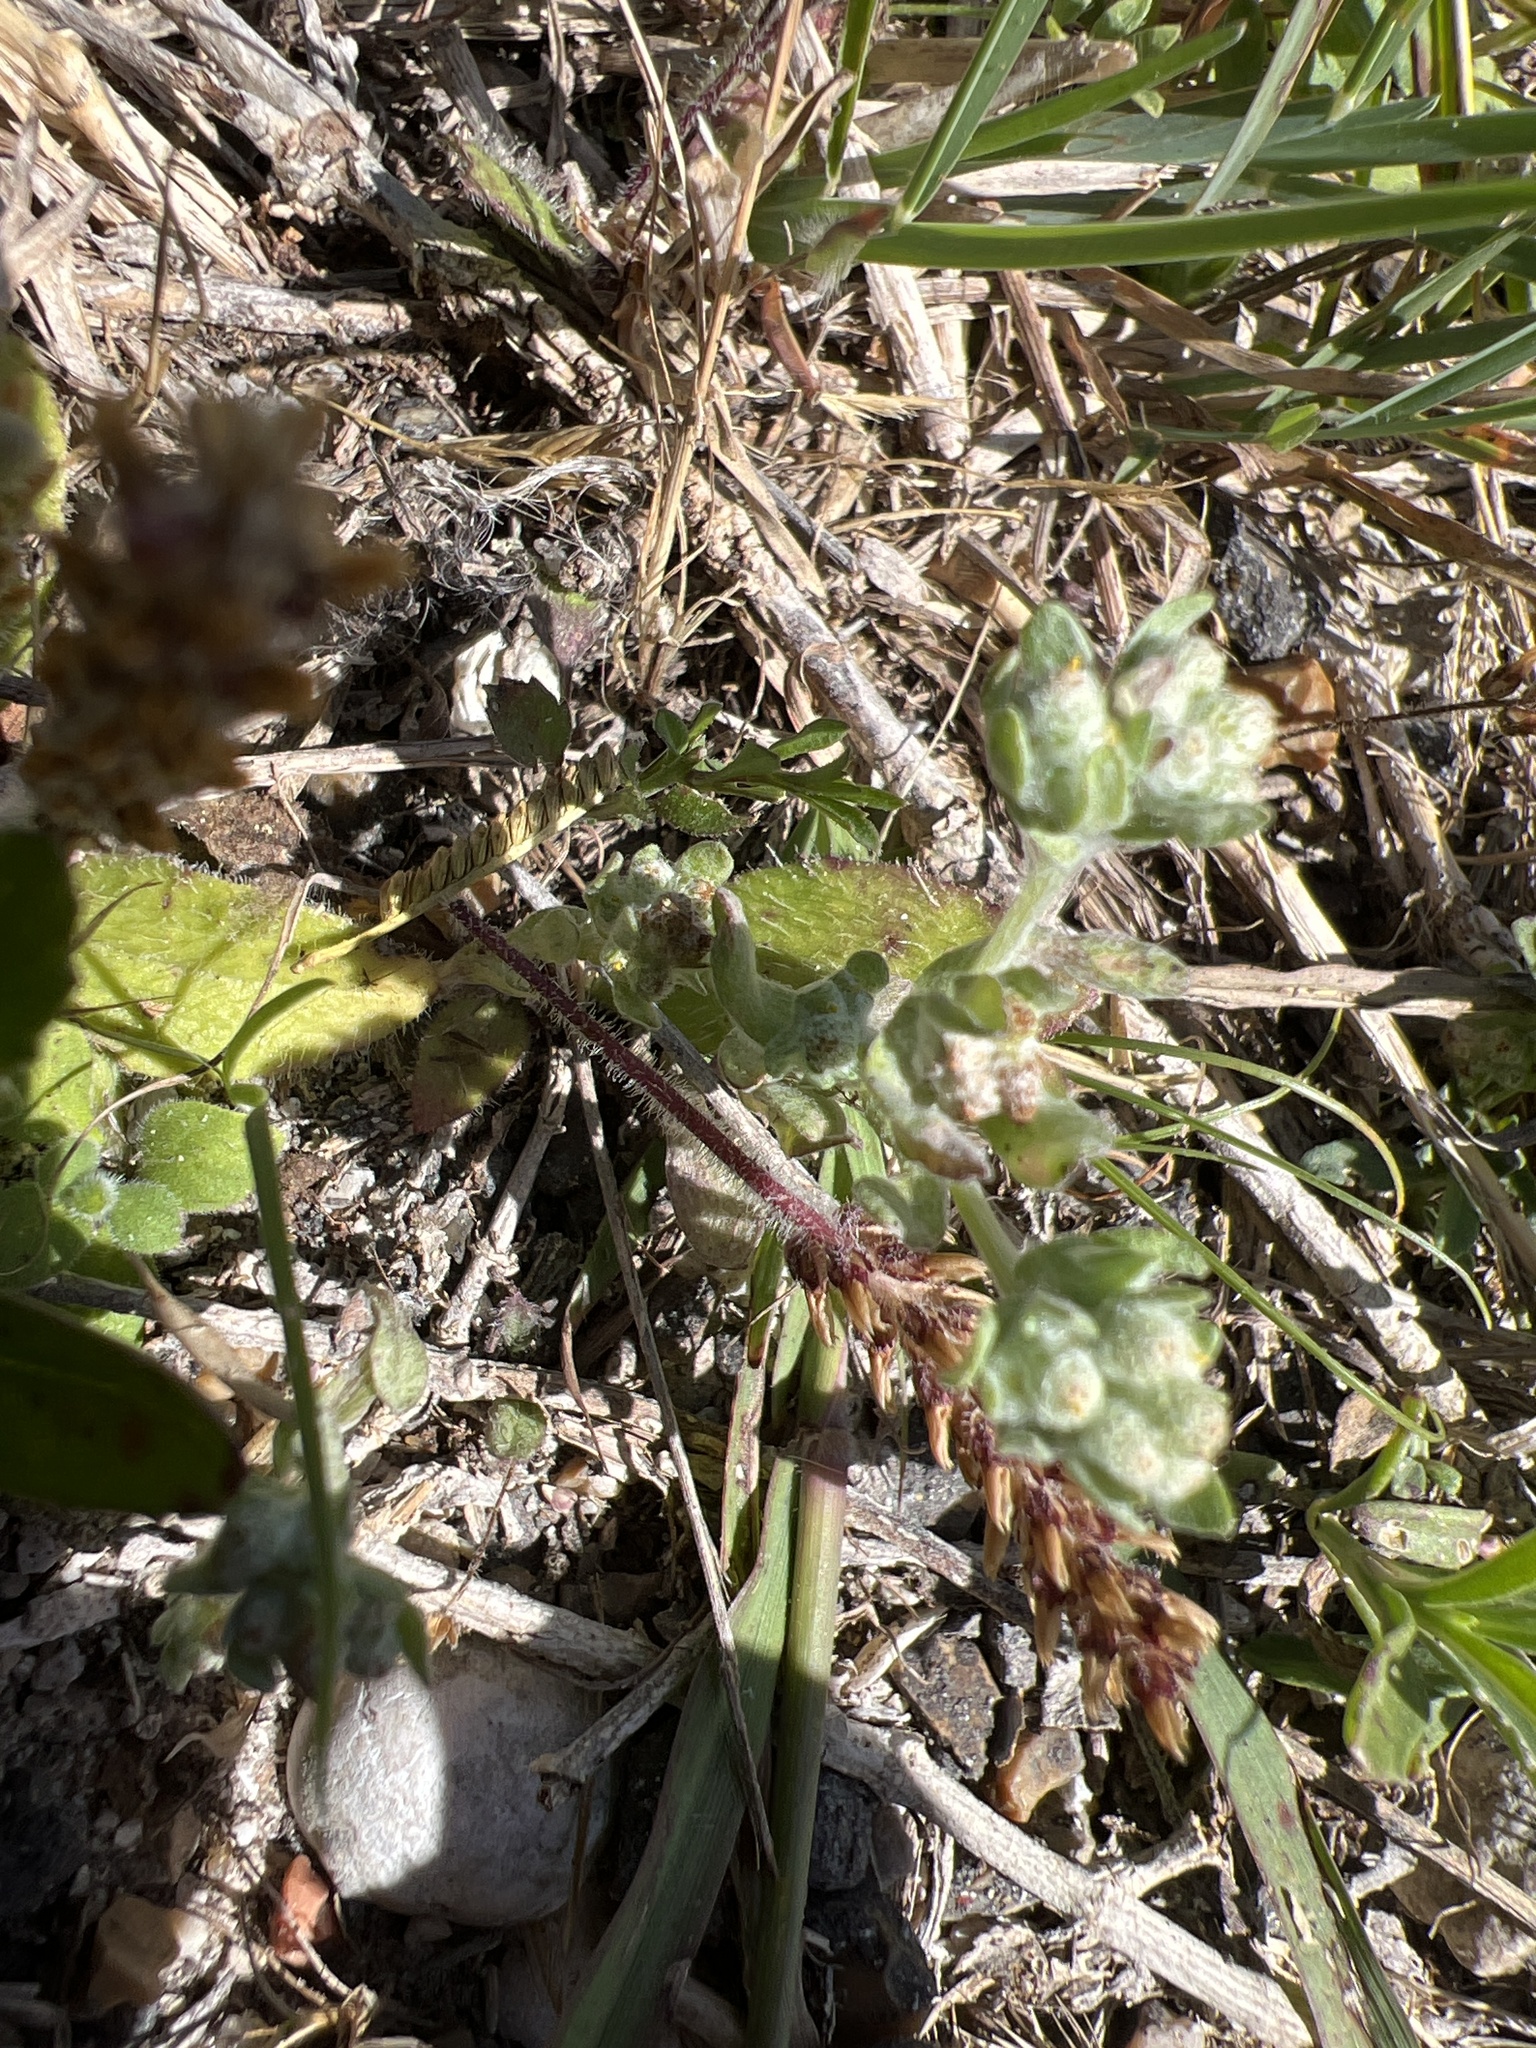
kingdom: Plantae
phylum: Tracheophyta
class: Magnoliopsida
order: Asterales
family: Asteraceae
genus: Diaperia
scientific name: Diaperia verna
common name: Many-stem rabbit-tobacco
